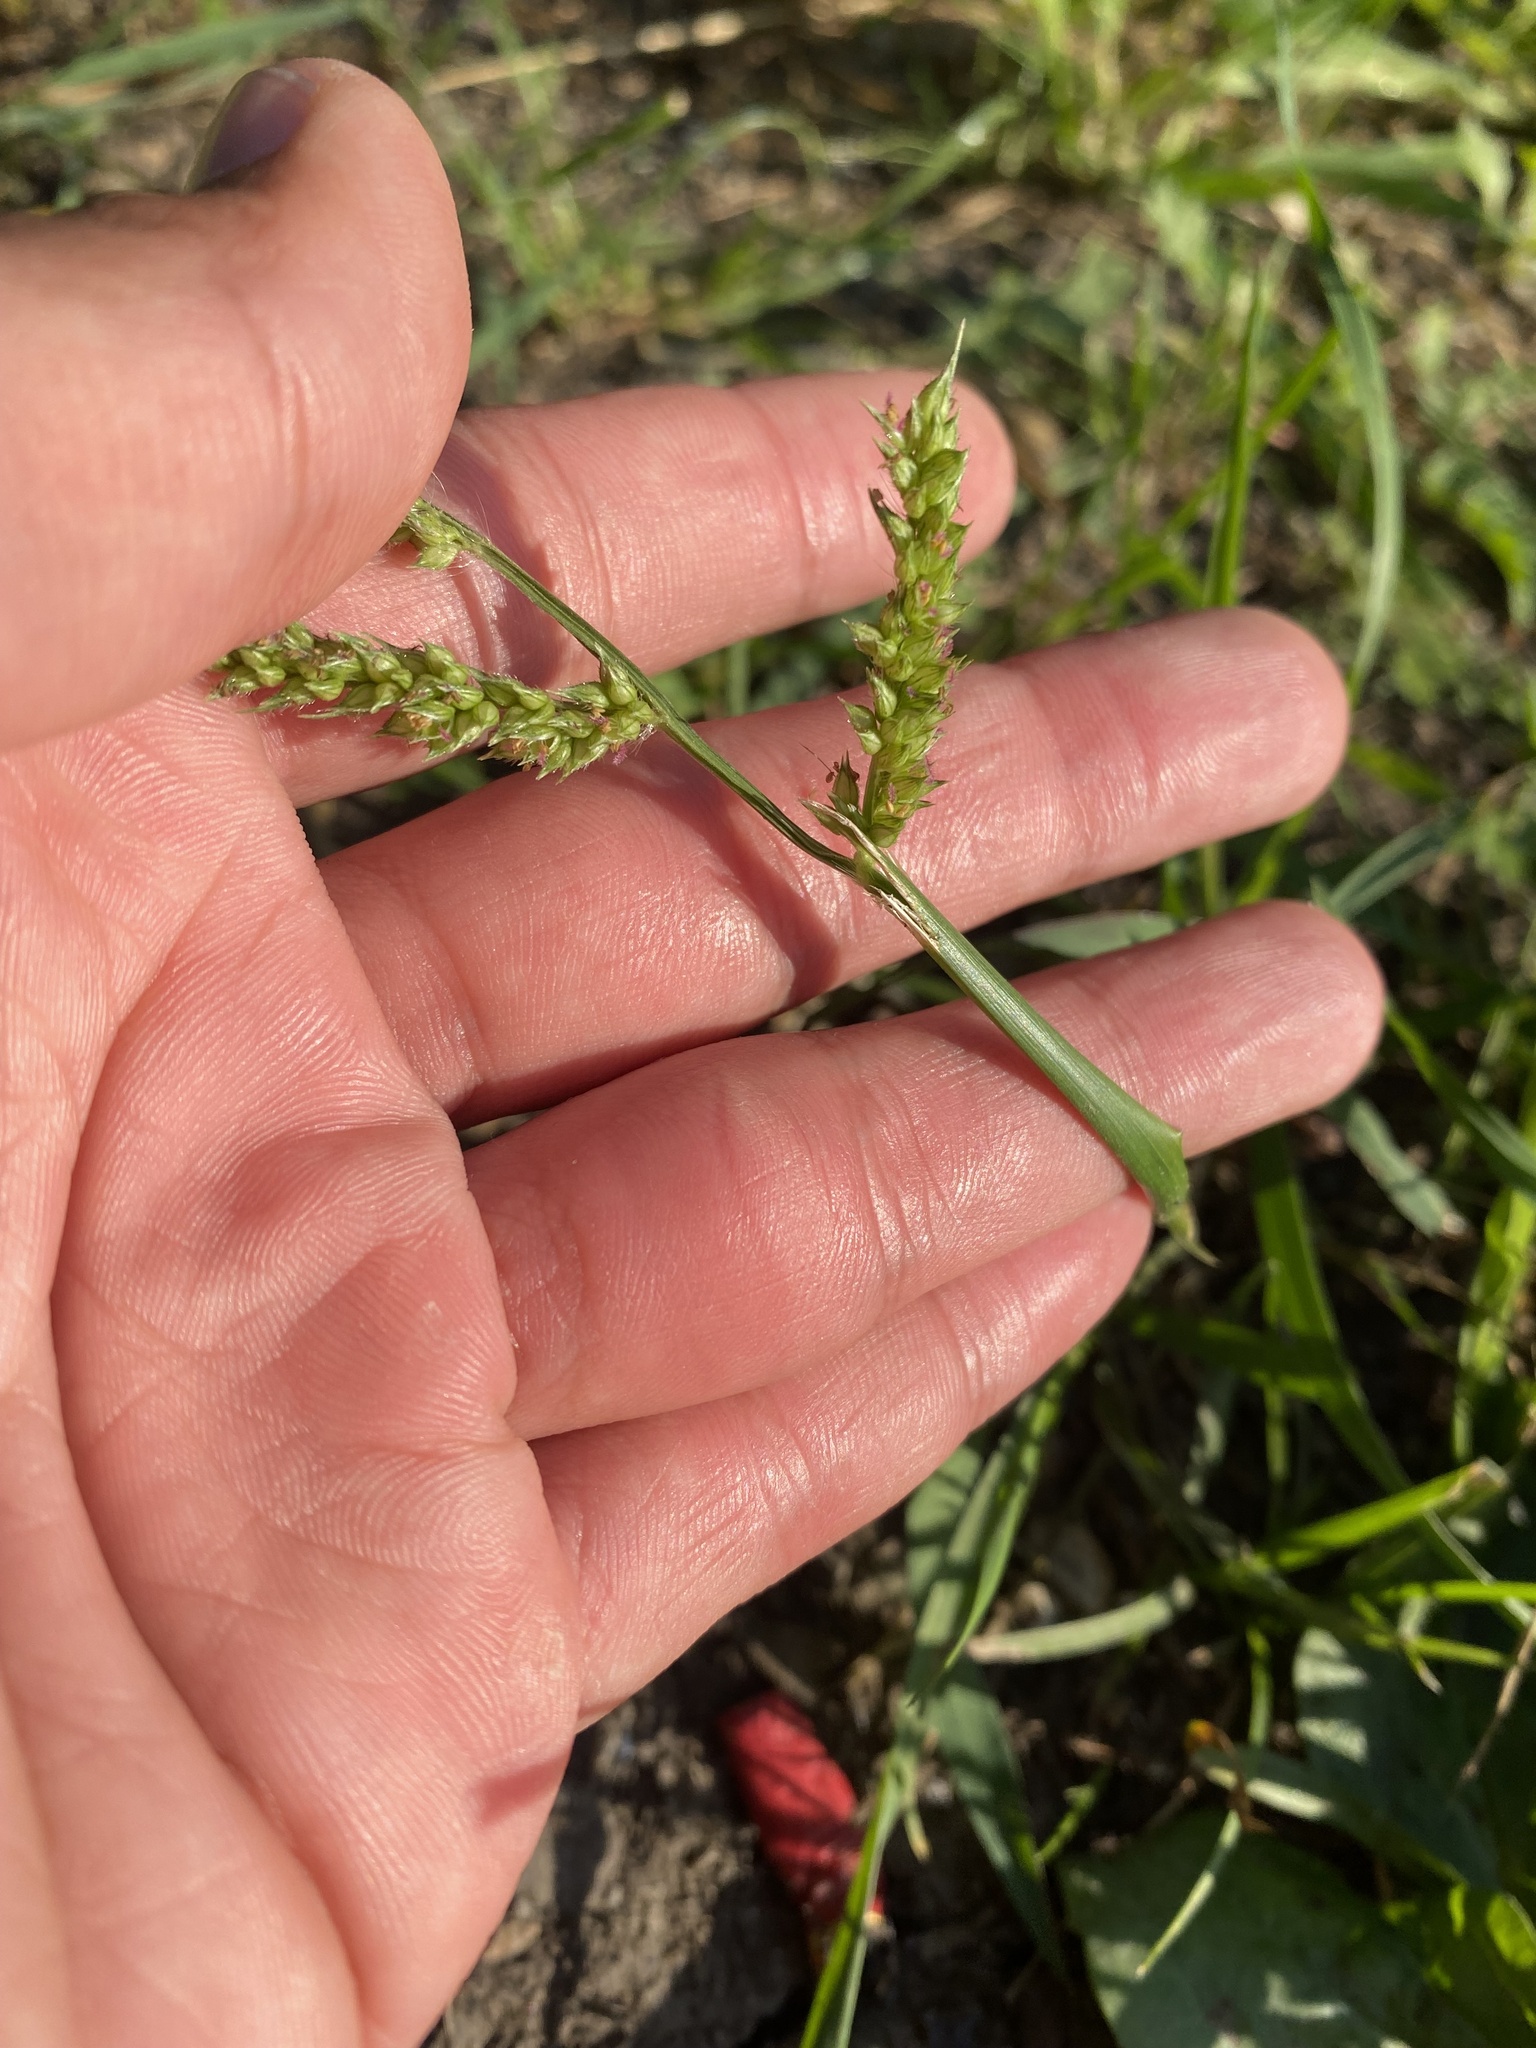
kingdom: Plantae
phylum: Tracheophyta
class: Liliopsida
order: Poales
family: Poaceae
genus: Echinochloa
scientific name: Echinochloa crus-galli
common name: Cockspur
